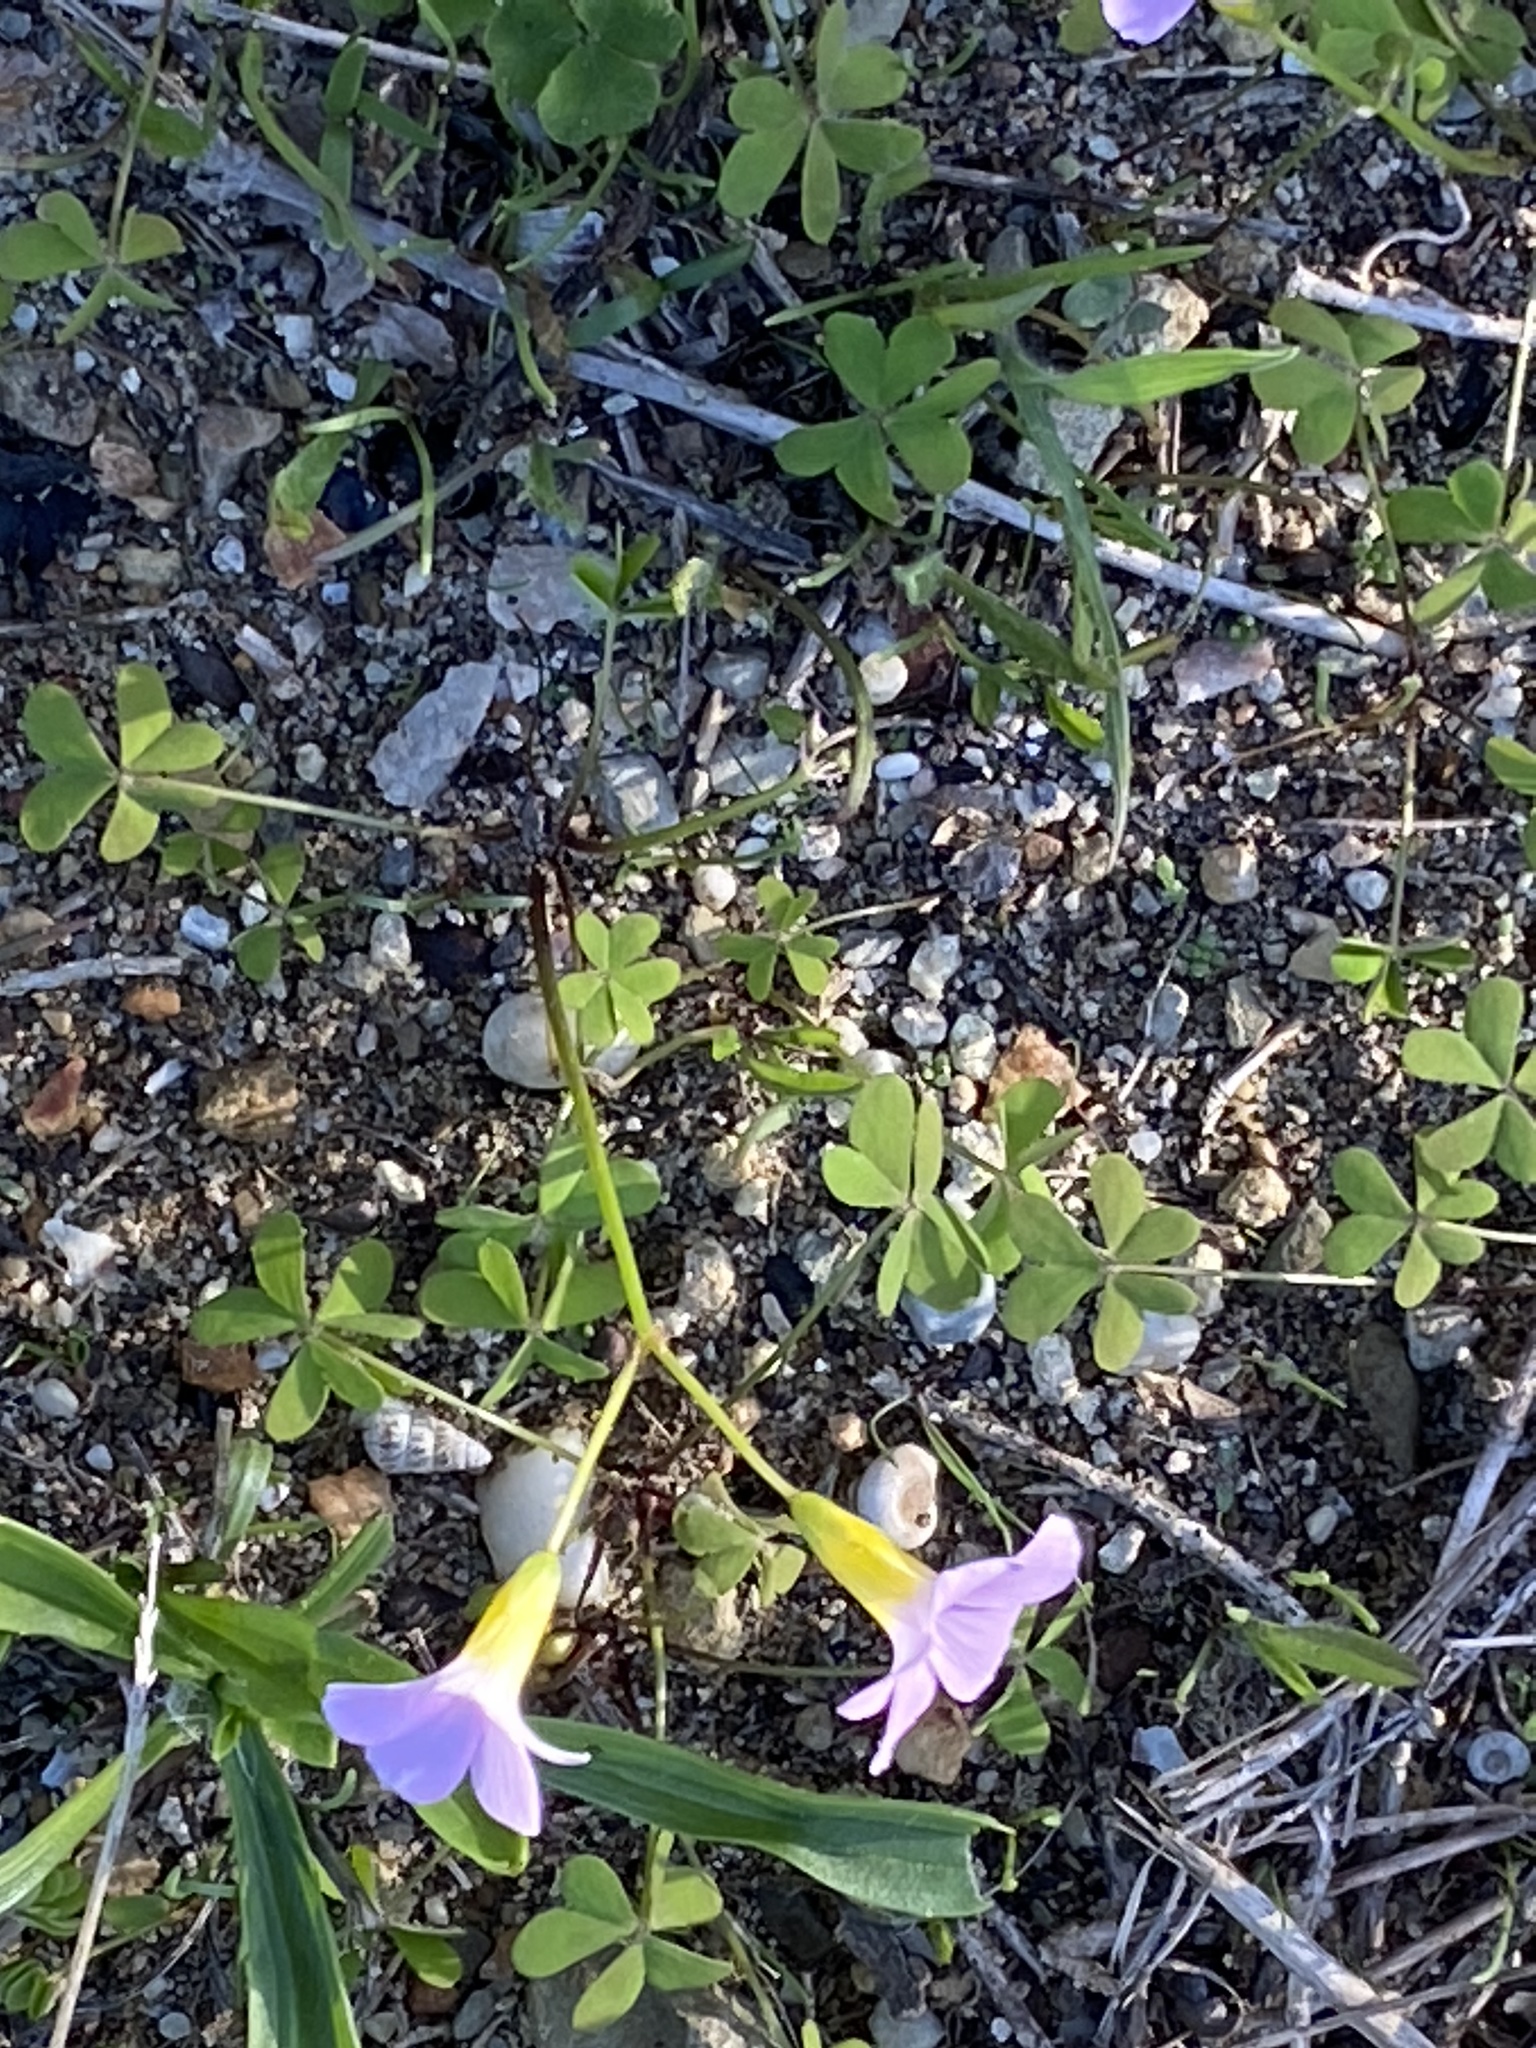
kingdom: Plantae
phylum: Tracheophyta
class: Magnoliopsida
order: Oxalidales
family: Oxalidaceae
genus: Oxalis
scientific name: Oxalis caprina
